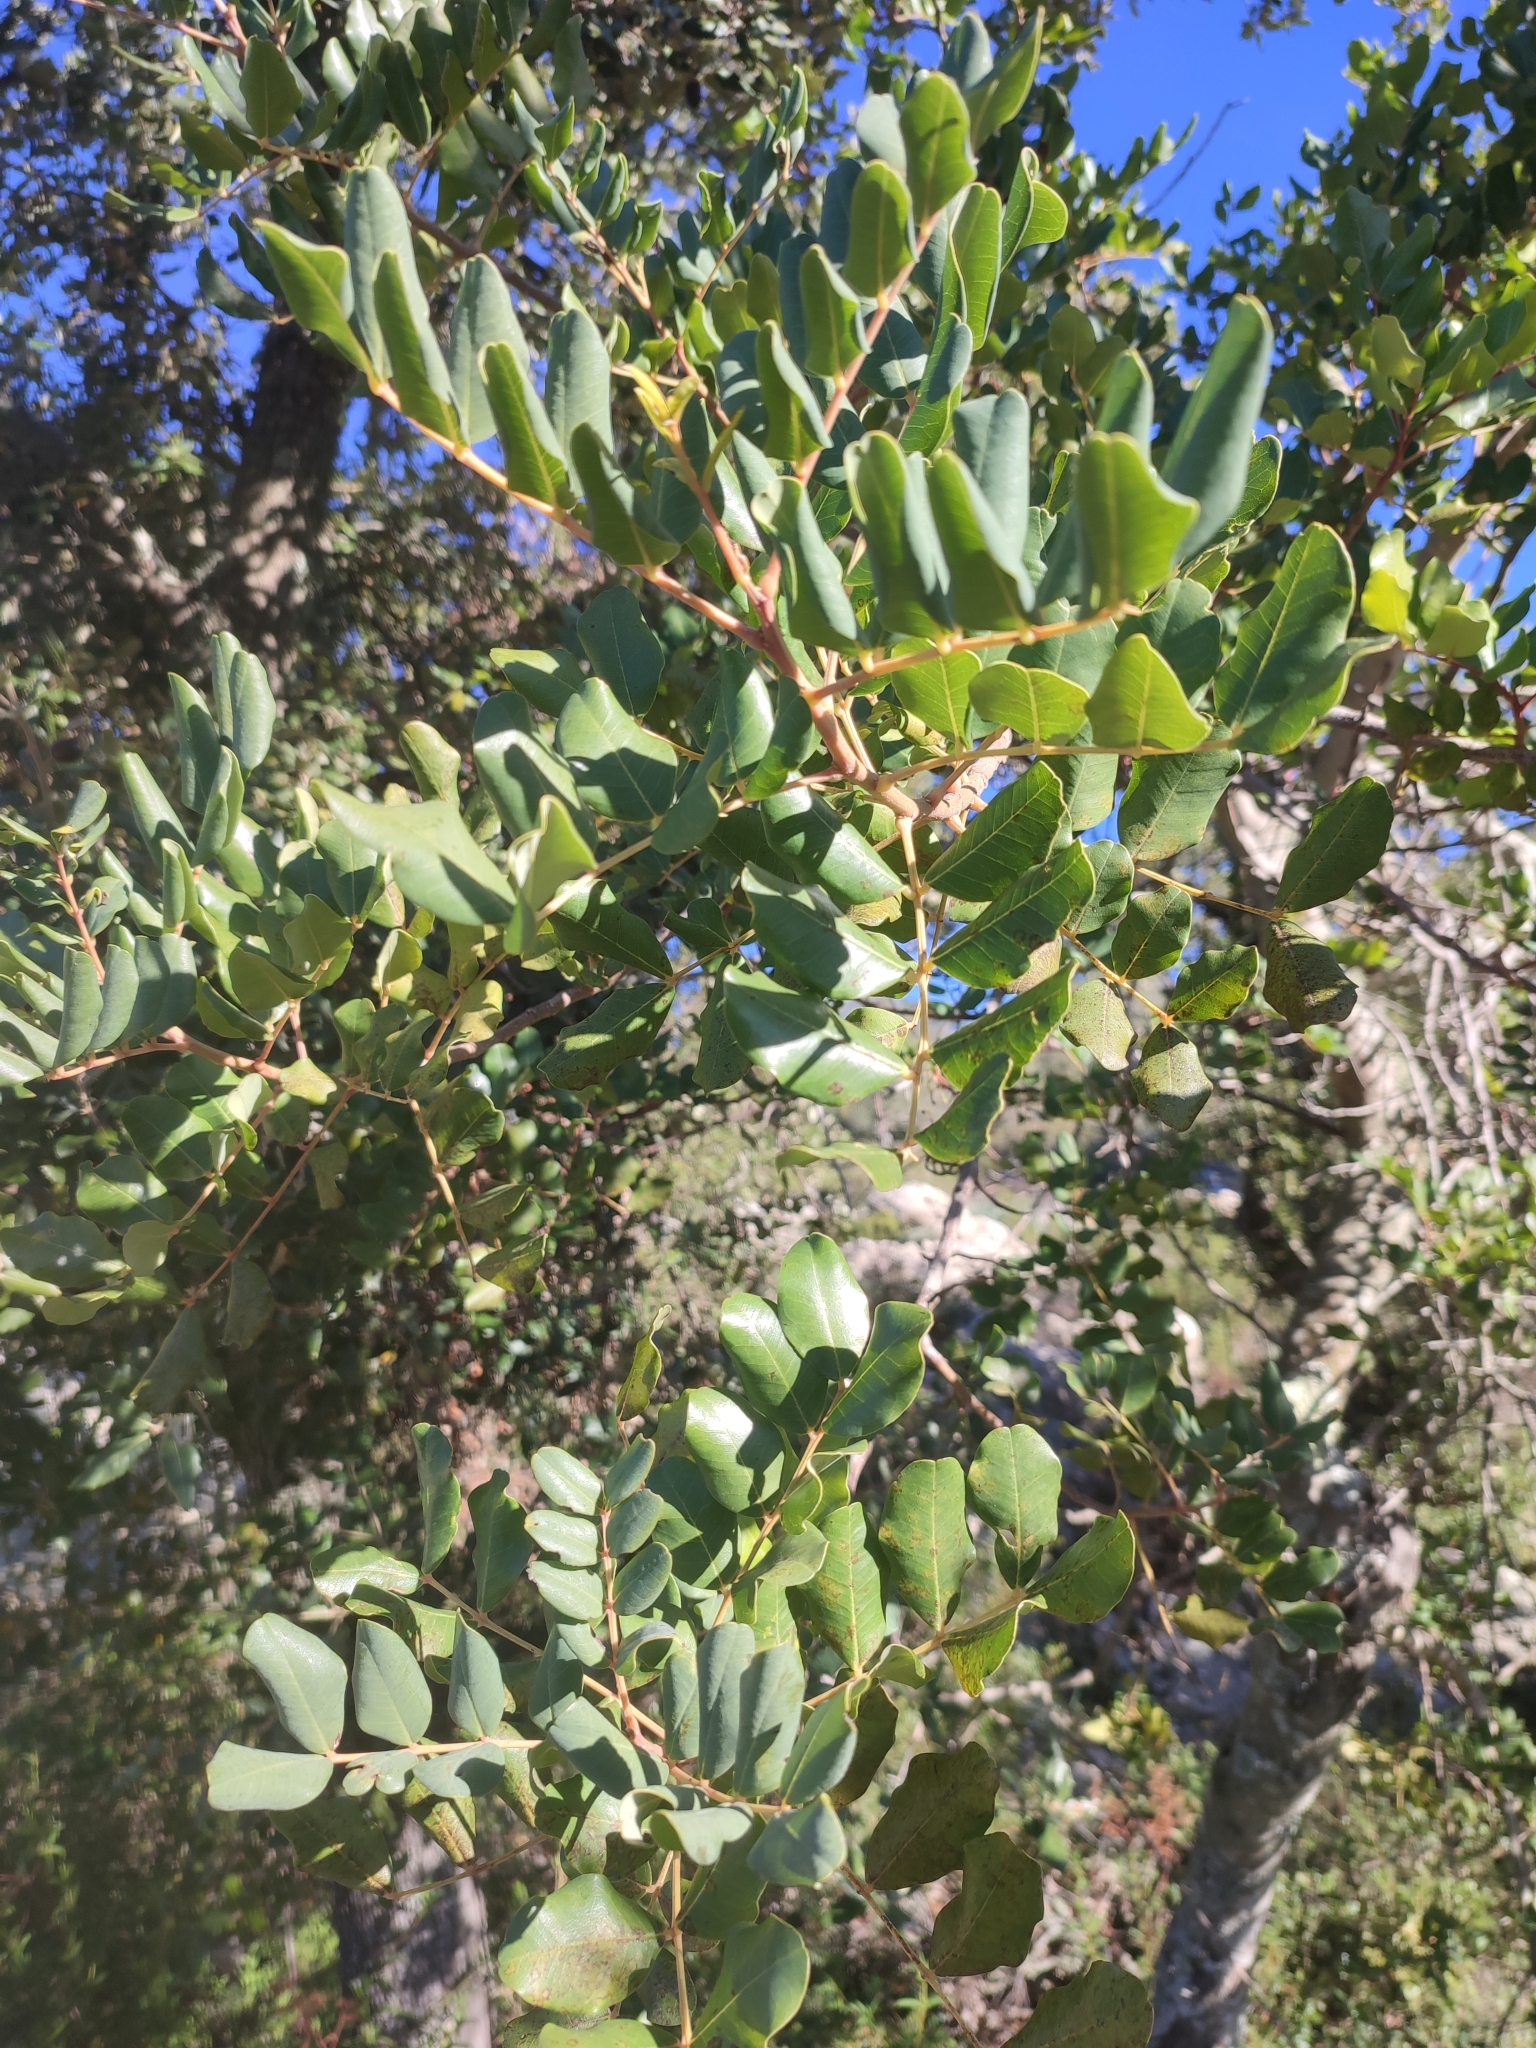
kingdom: Plantae
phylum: Tracheophyta
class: Magnoliopsida
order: Fabales
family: Fabaceae
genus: Ceratonia
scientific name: Ceratonia siliqua
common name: Carob
